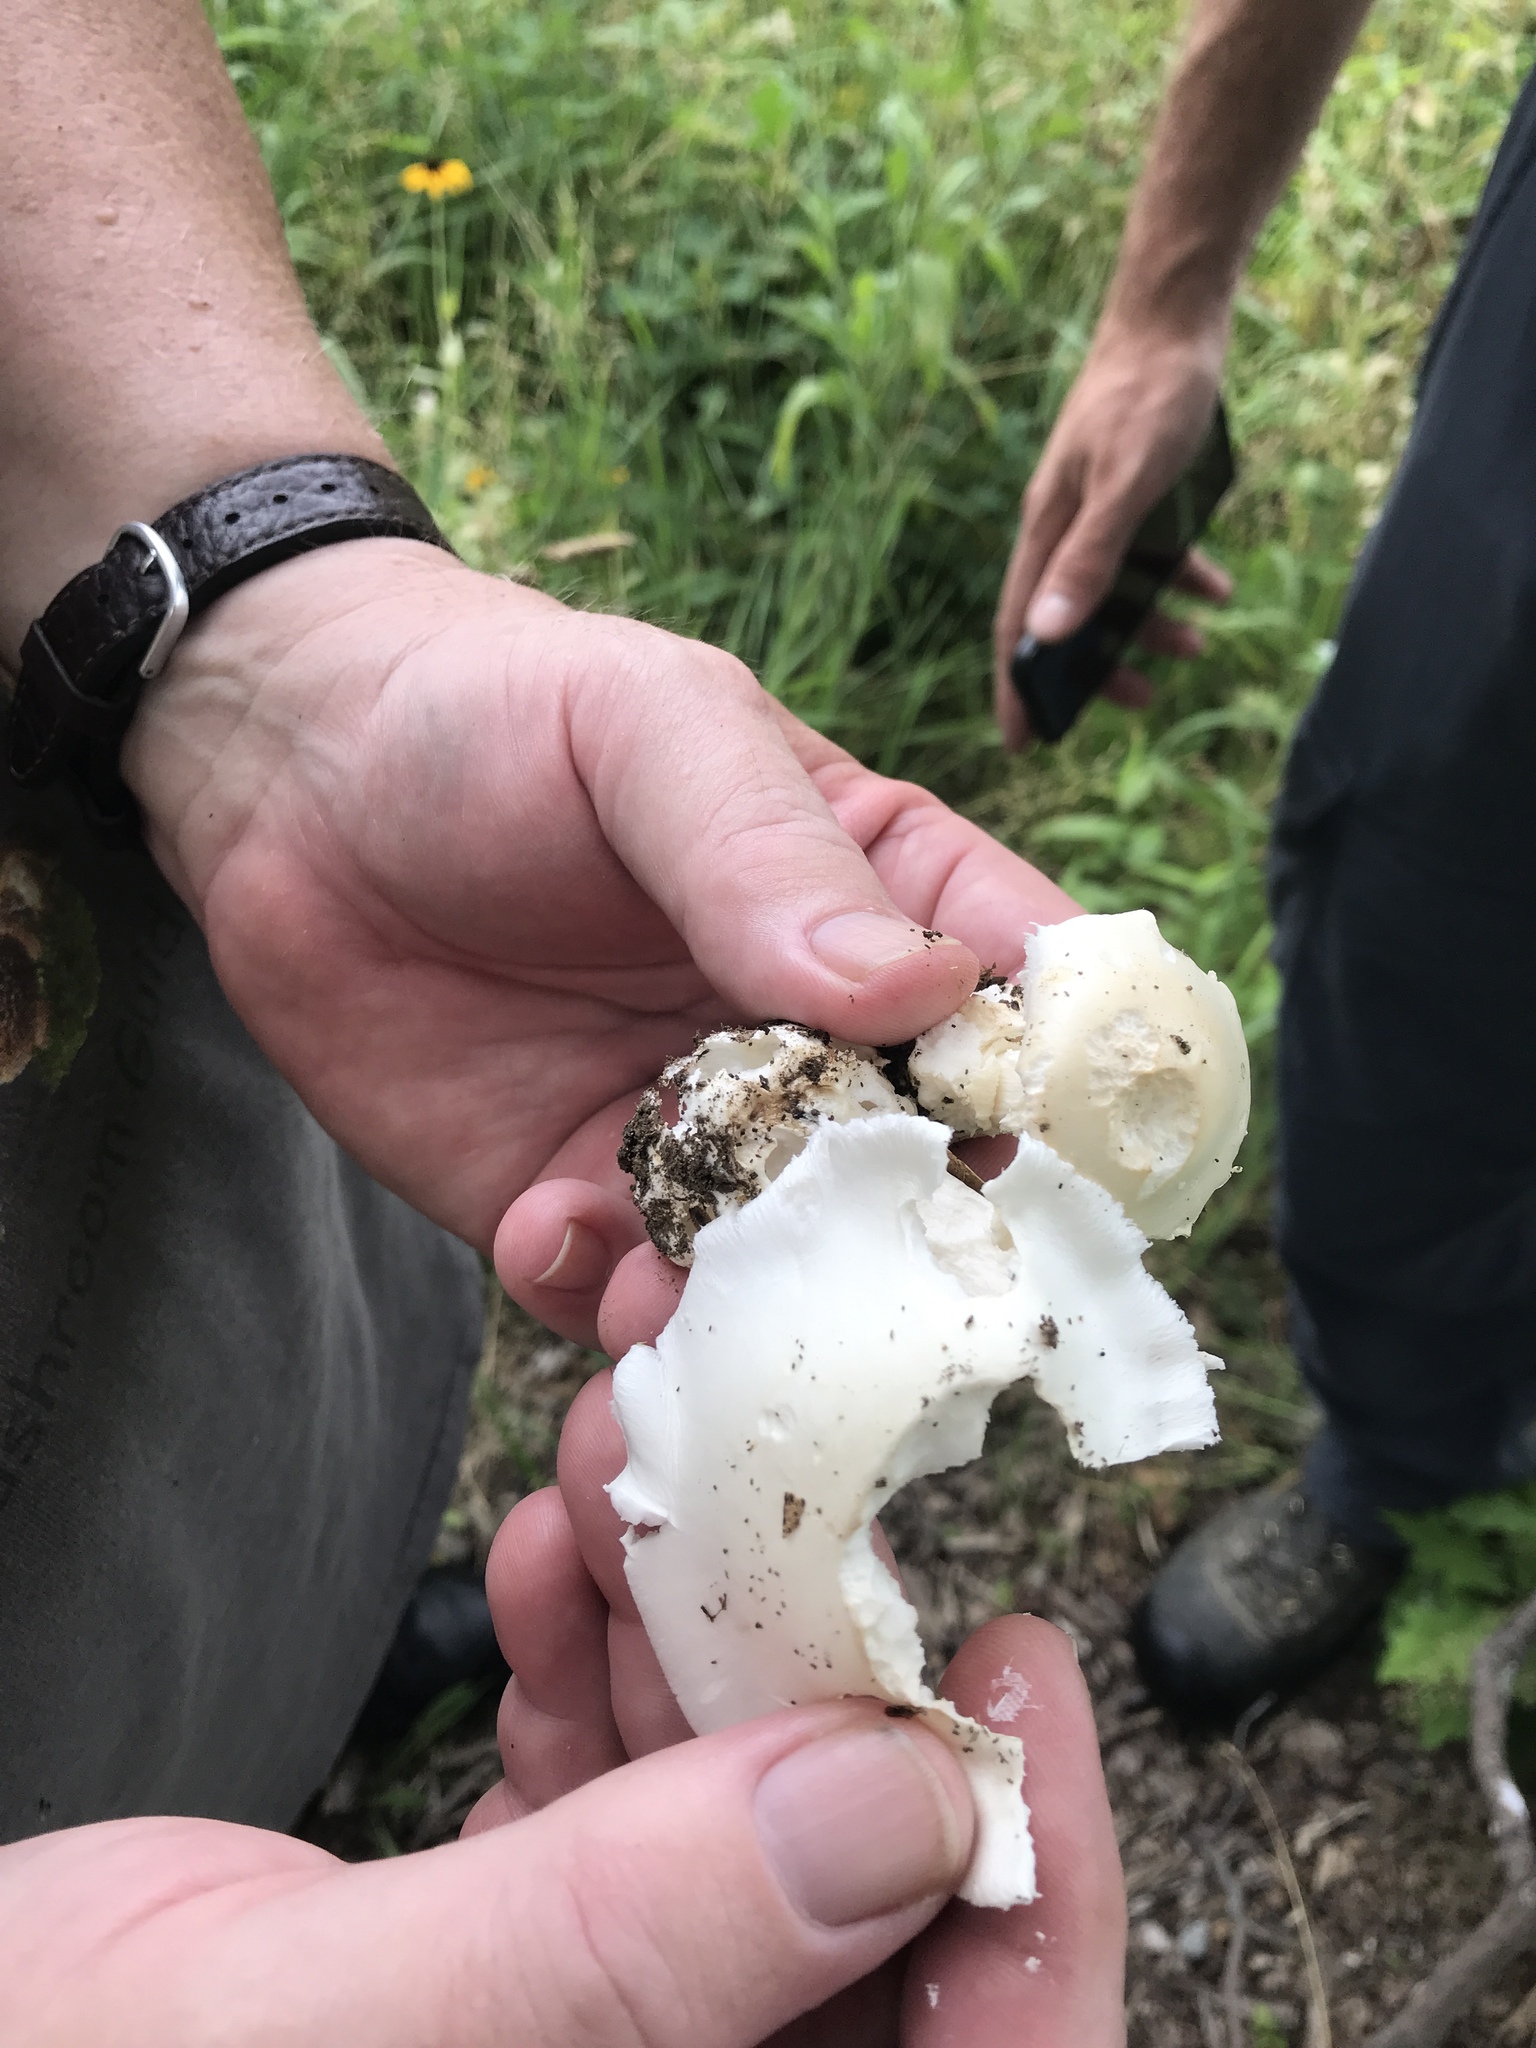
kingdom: Fungi
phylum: Basidiomycota
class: Agaricomycetes
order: Agaricales
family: Amanitaceae
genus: Amanita
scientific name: Amanita bisporigera
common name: Eastern north american destroying angel
